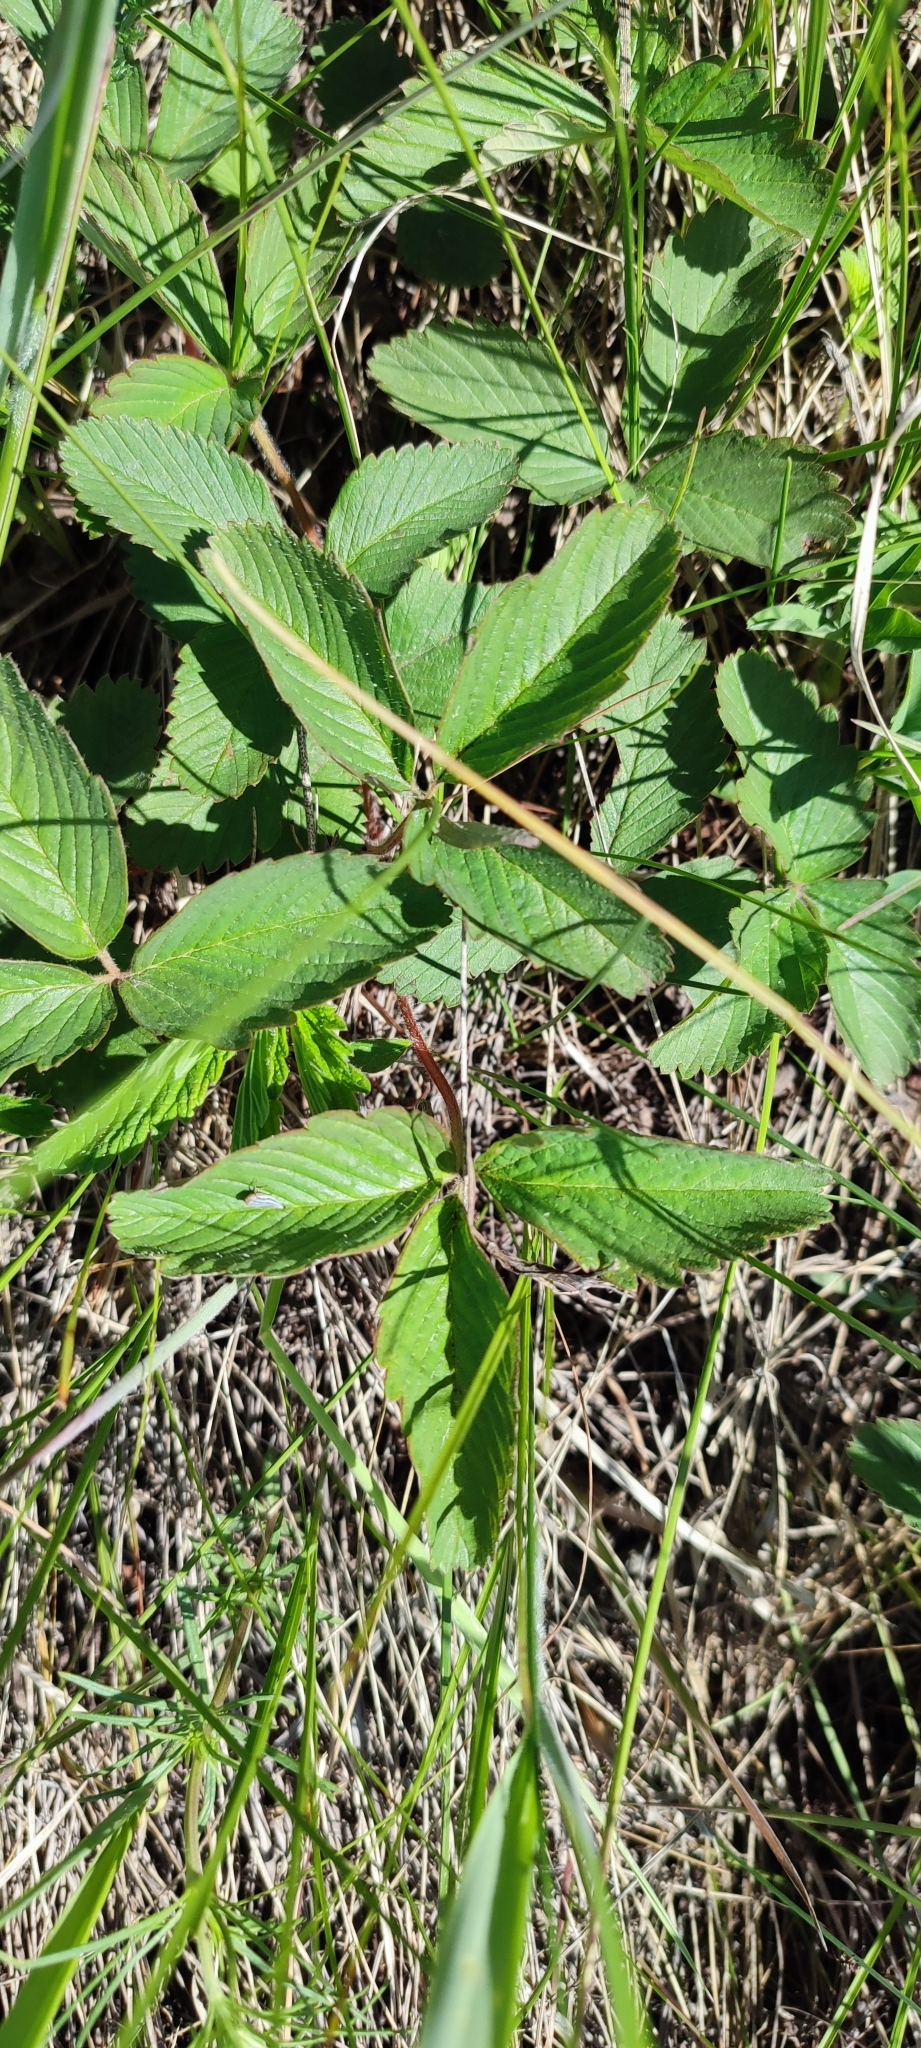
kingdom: Plantae
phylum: Tracheophyta
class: Magnoliopsida
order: Rosales
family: Rosaceae
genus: Fragaria
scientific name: Fragaria viridis
